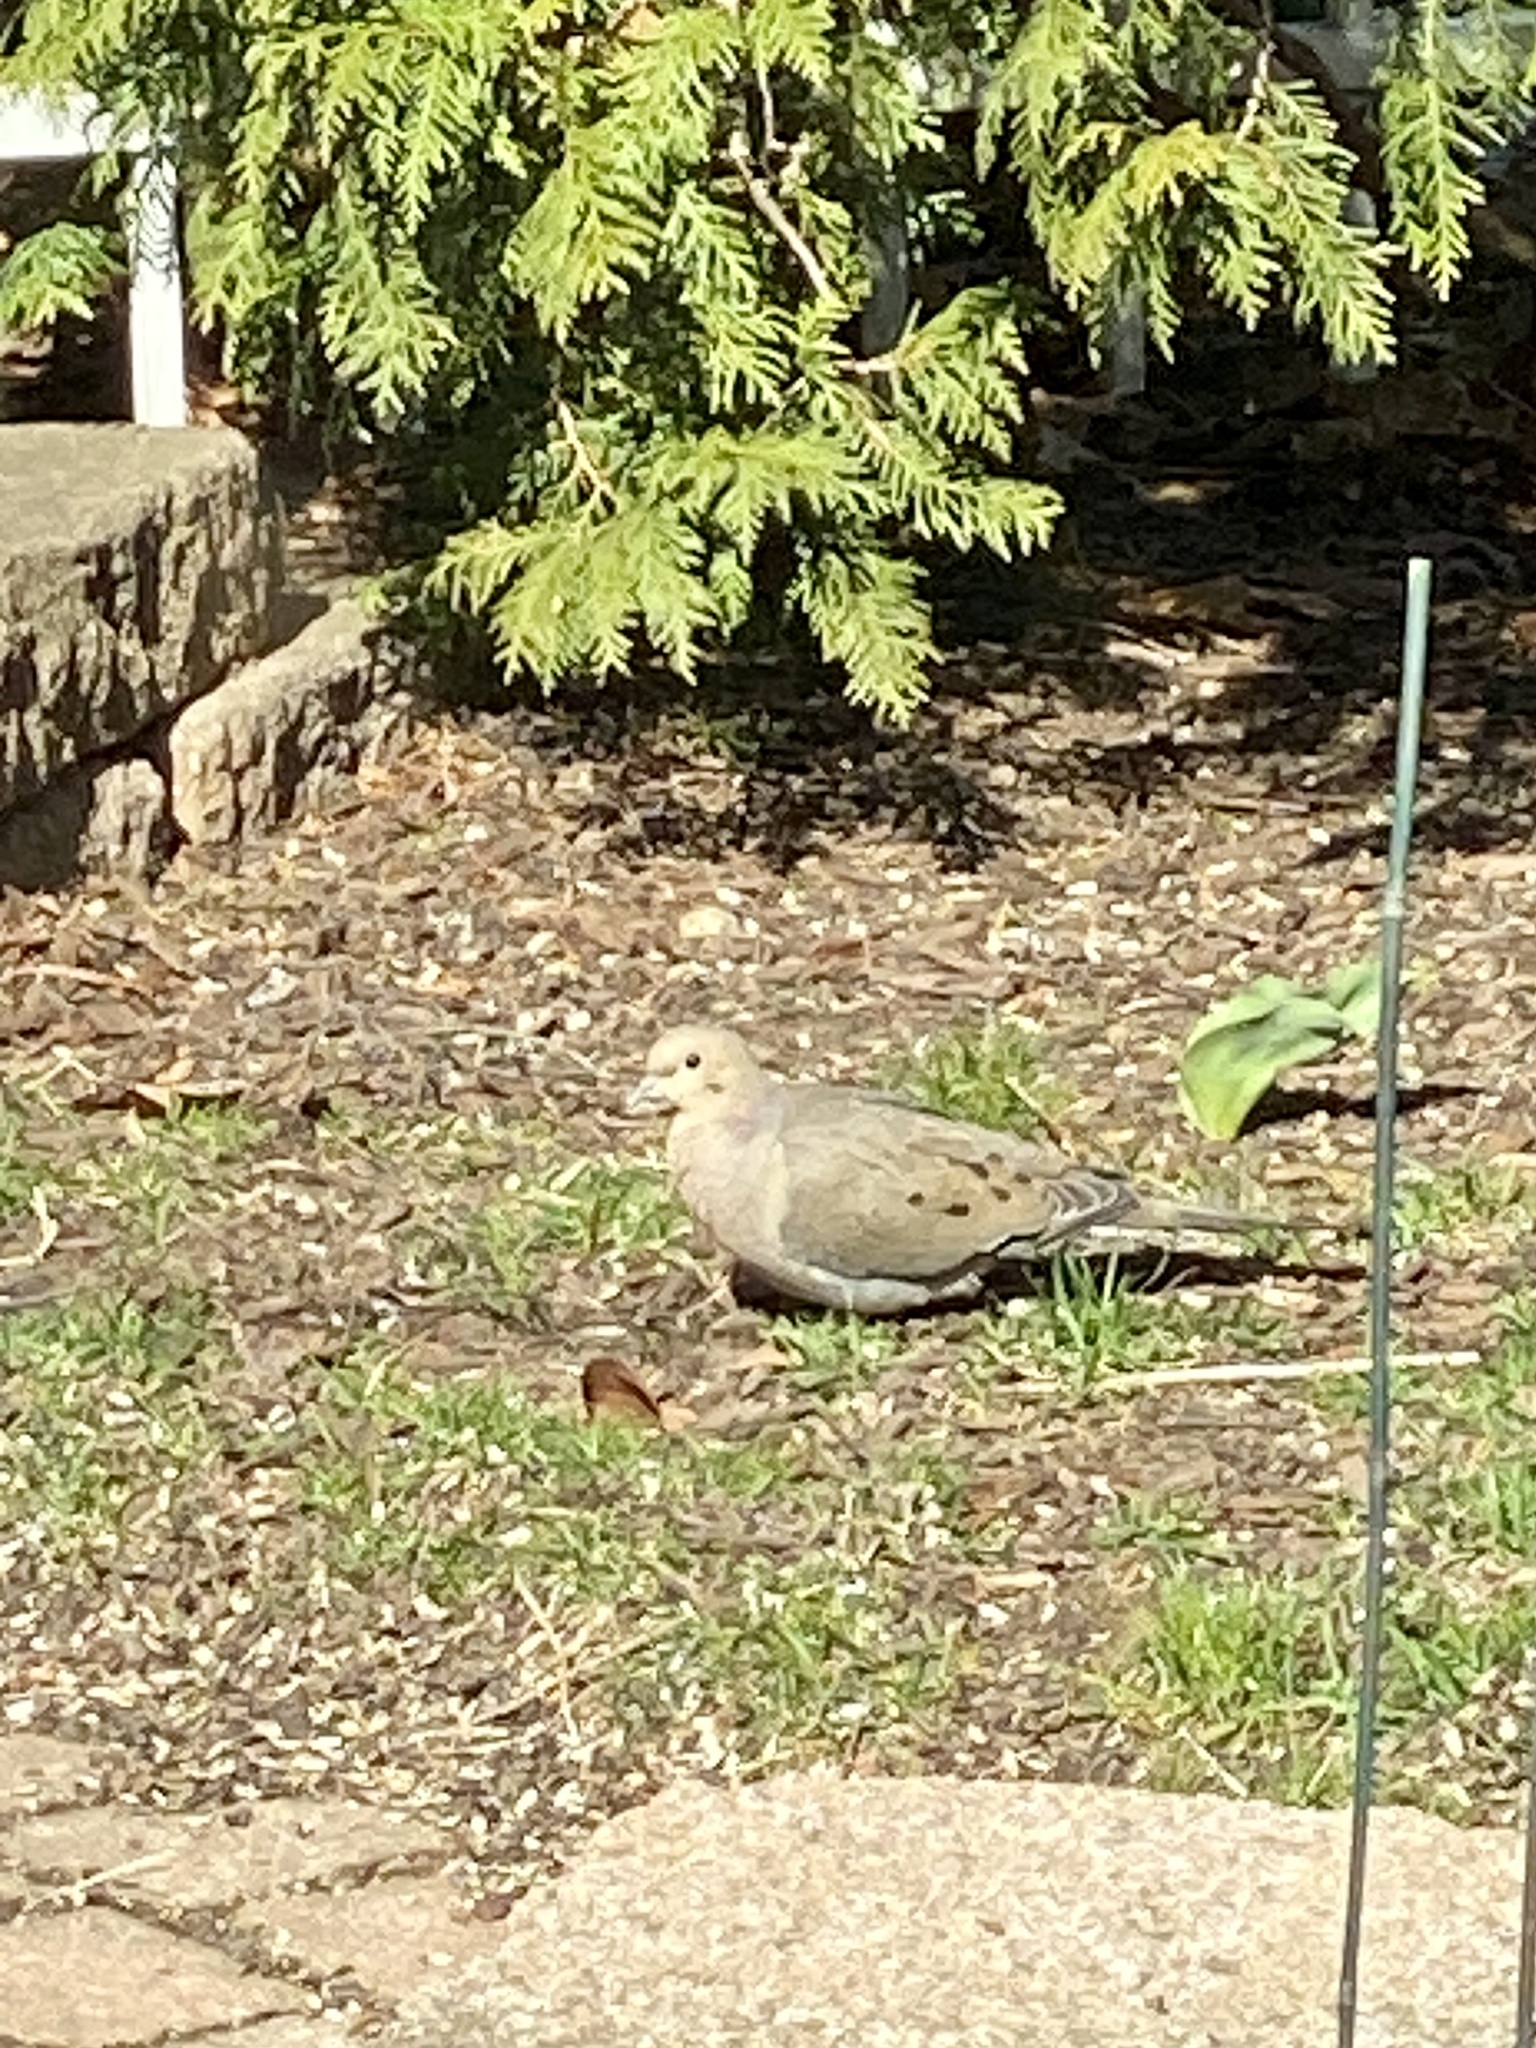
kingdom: Animalia
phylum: Chordata
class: Aves
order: Columbiformes
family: Columbidae
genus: Zenaida
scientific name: Zenaida macroura
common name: Mourning dove
